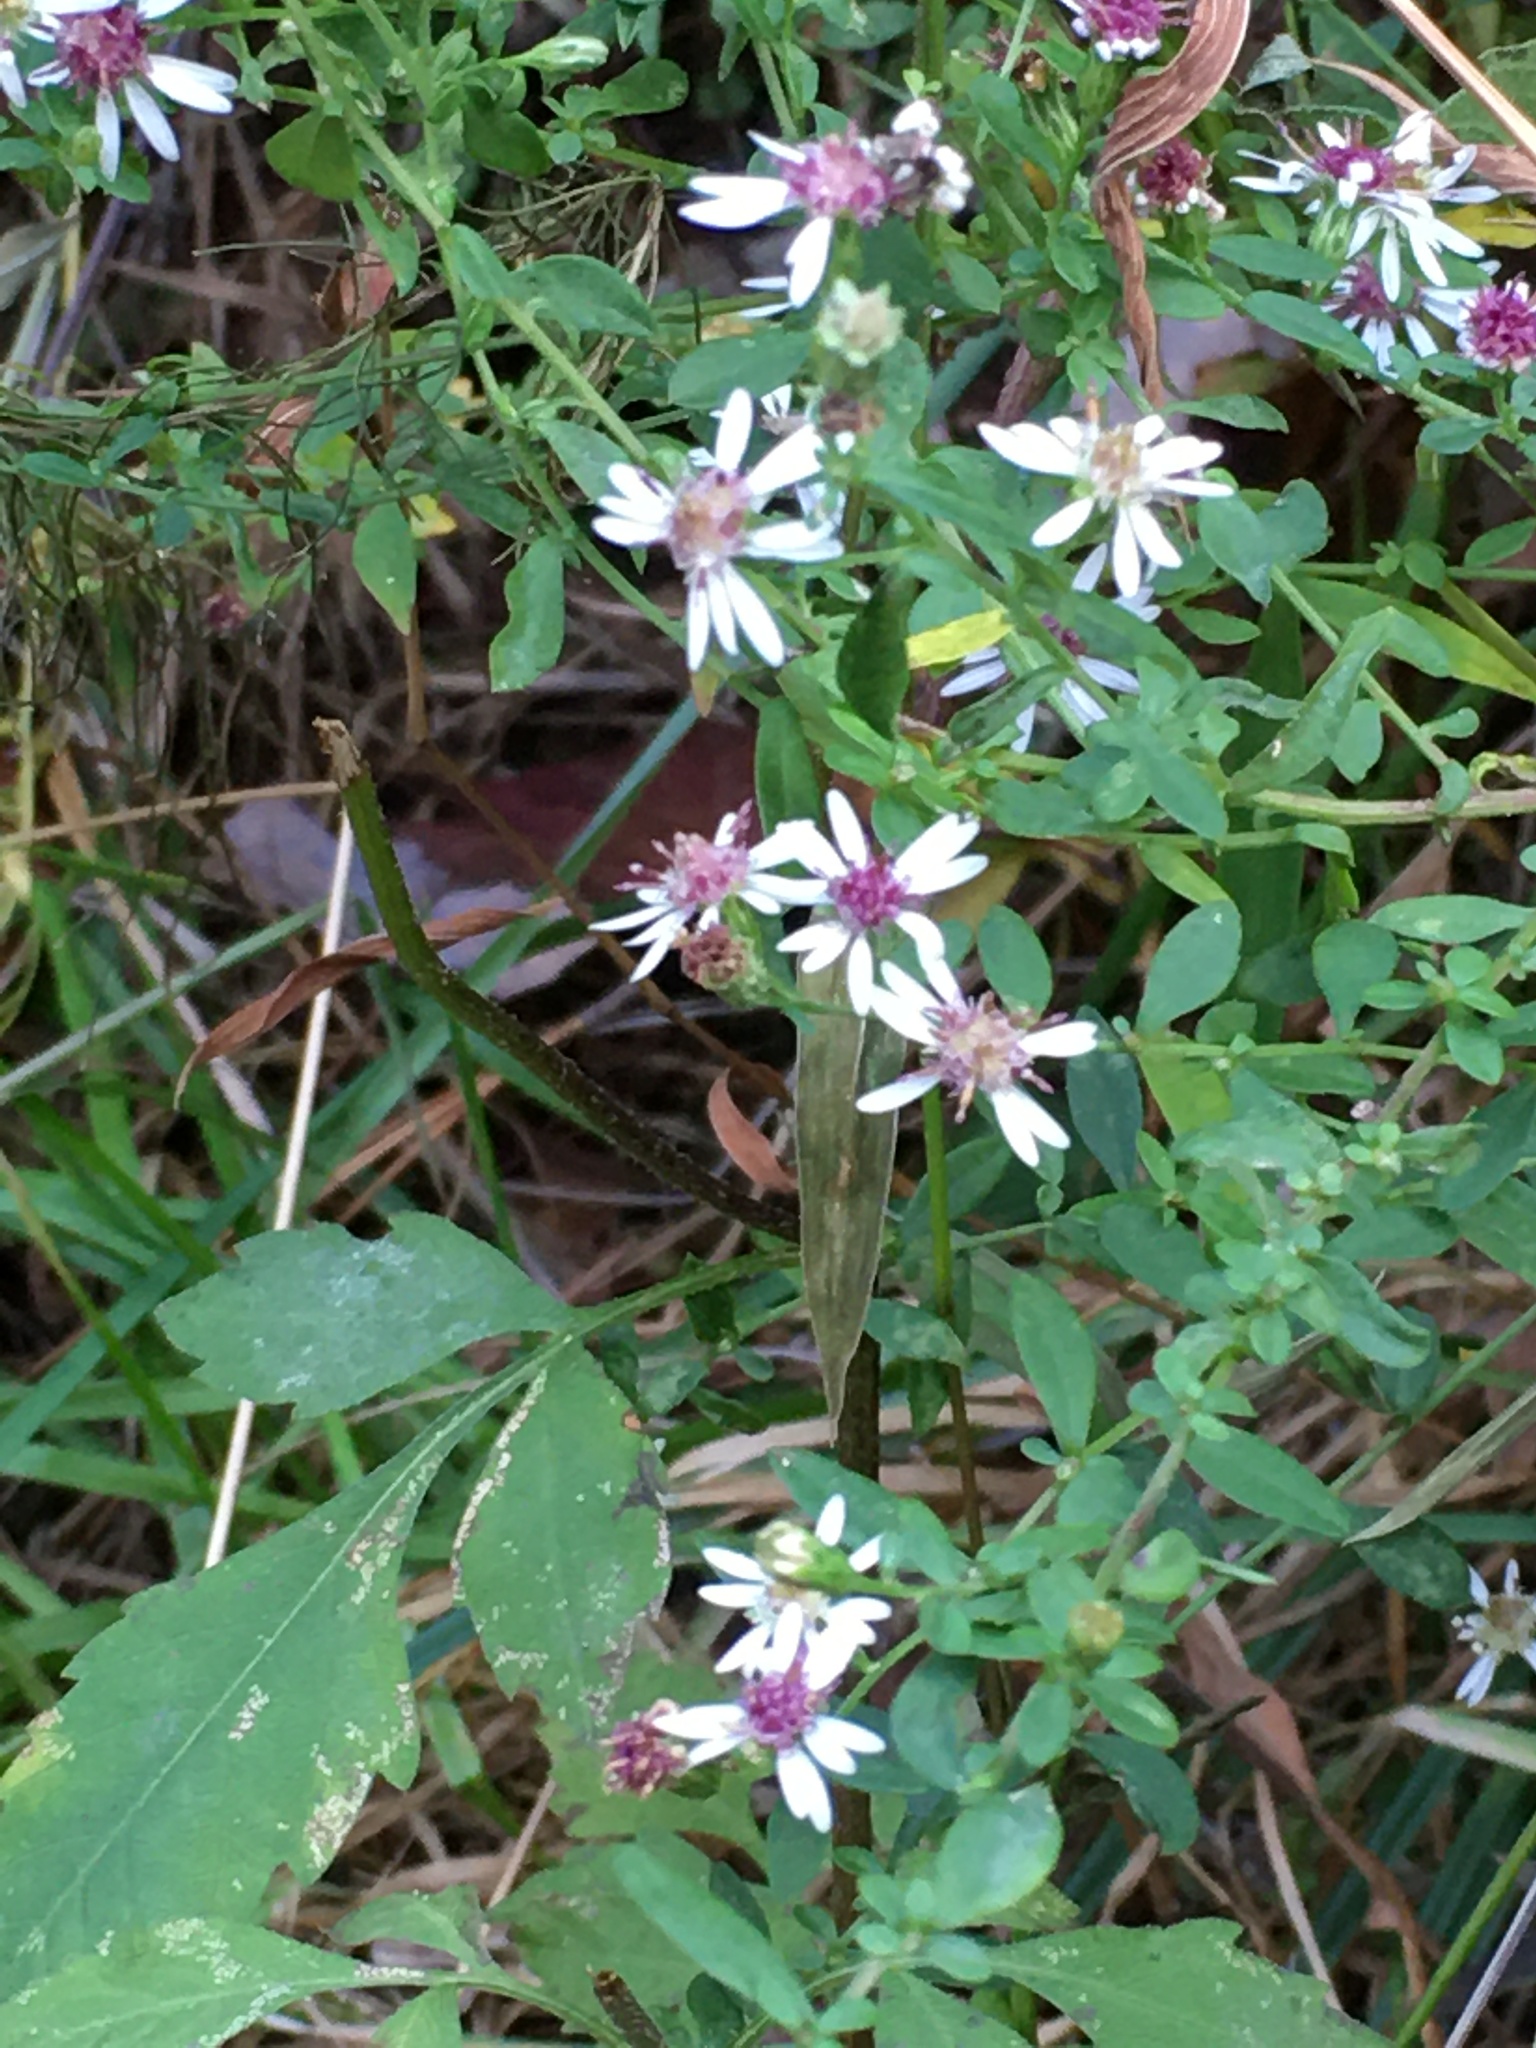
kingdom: Plantae
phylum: Tracheophyta
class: Magnoliopsida
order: Asterales
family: Asteraceae
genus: Symphyotrichum
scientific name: Symphyotrichum lateriflorum
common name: Calico aster
